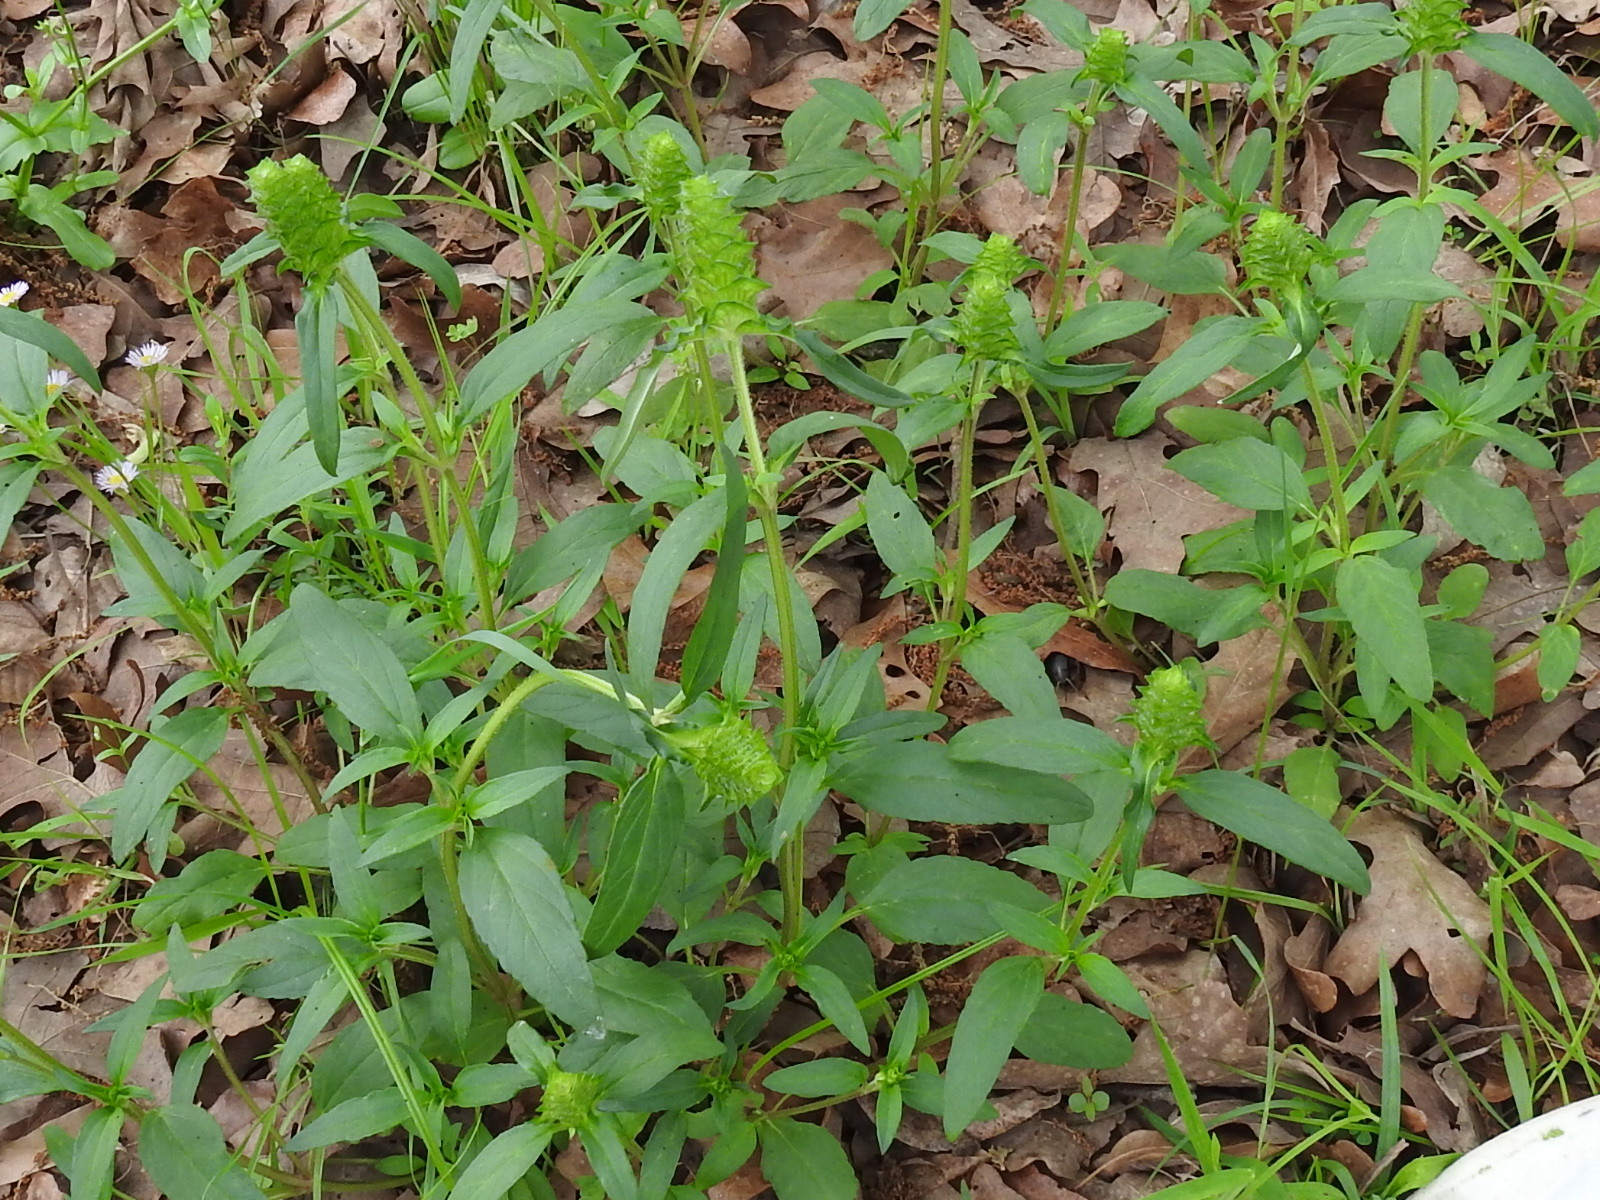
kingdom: Plantae
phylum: Tracheophyta
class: Magnoliopsida
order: Lamiales
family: Lamiaceae
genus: Prunella
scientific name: Prunella vulgaris
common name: Heal-all
